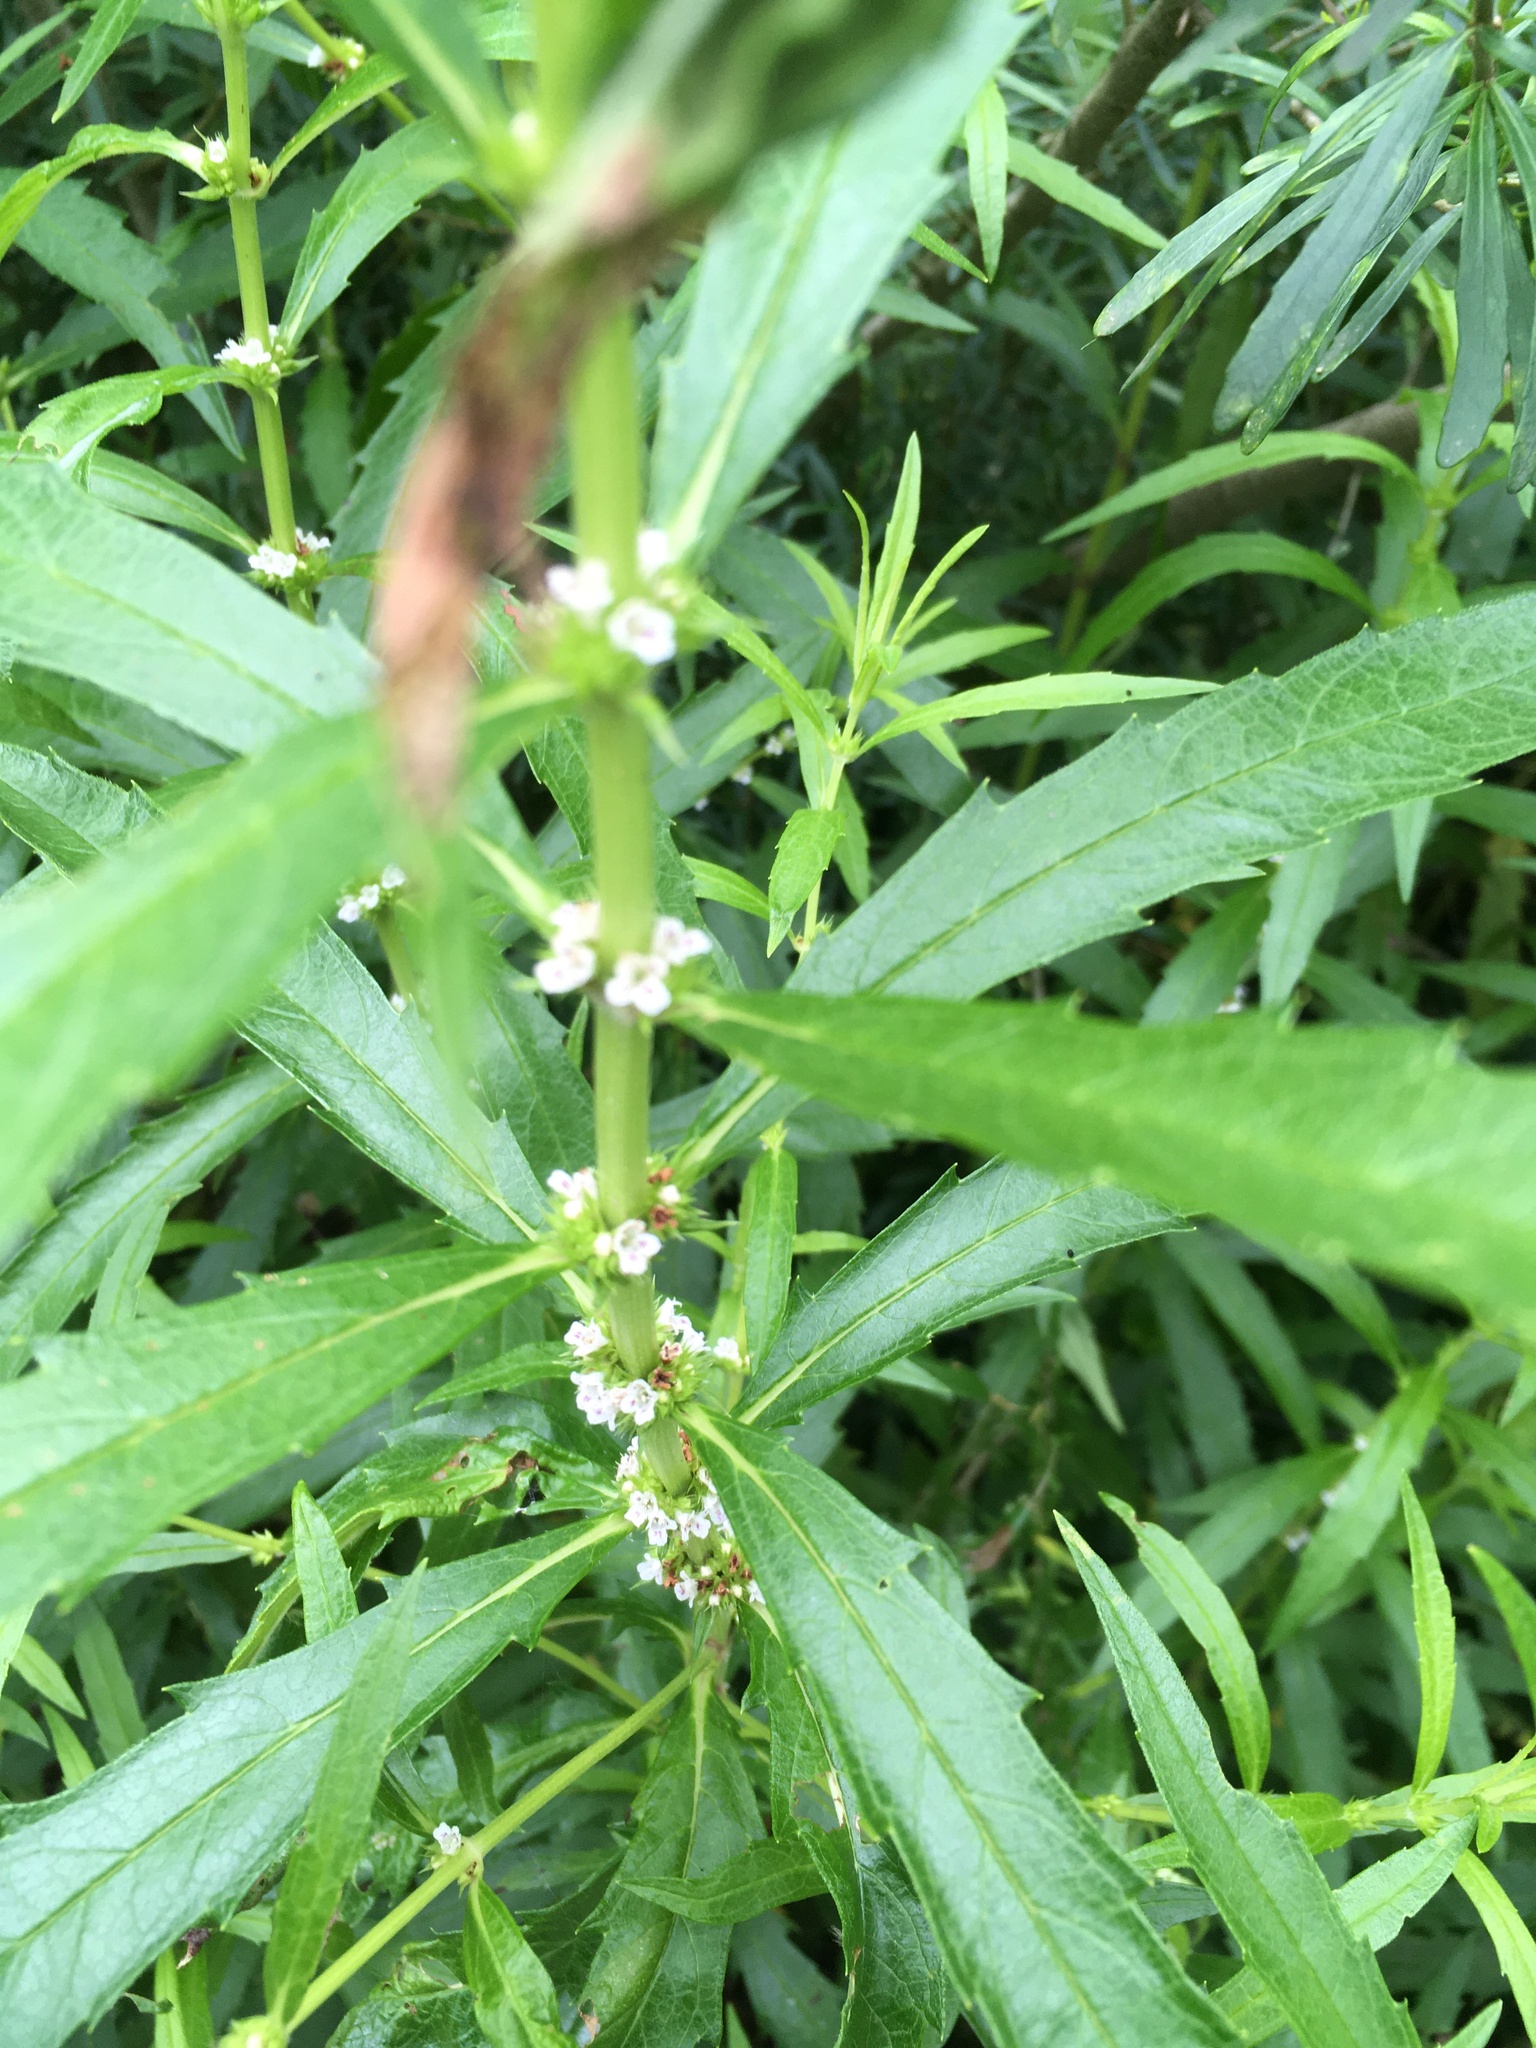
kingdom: Plantae
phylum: Tracheophyta
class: Magnoliopsida
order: Lamiales
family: Lamiaceae
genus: Lycopus
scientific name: Lycopus australis
